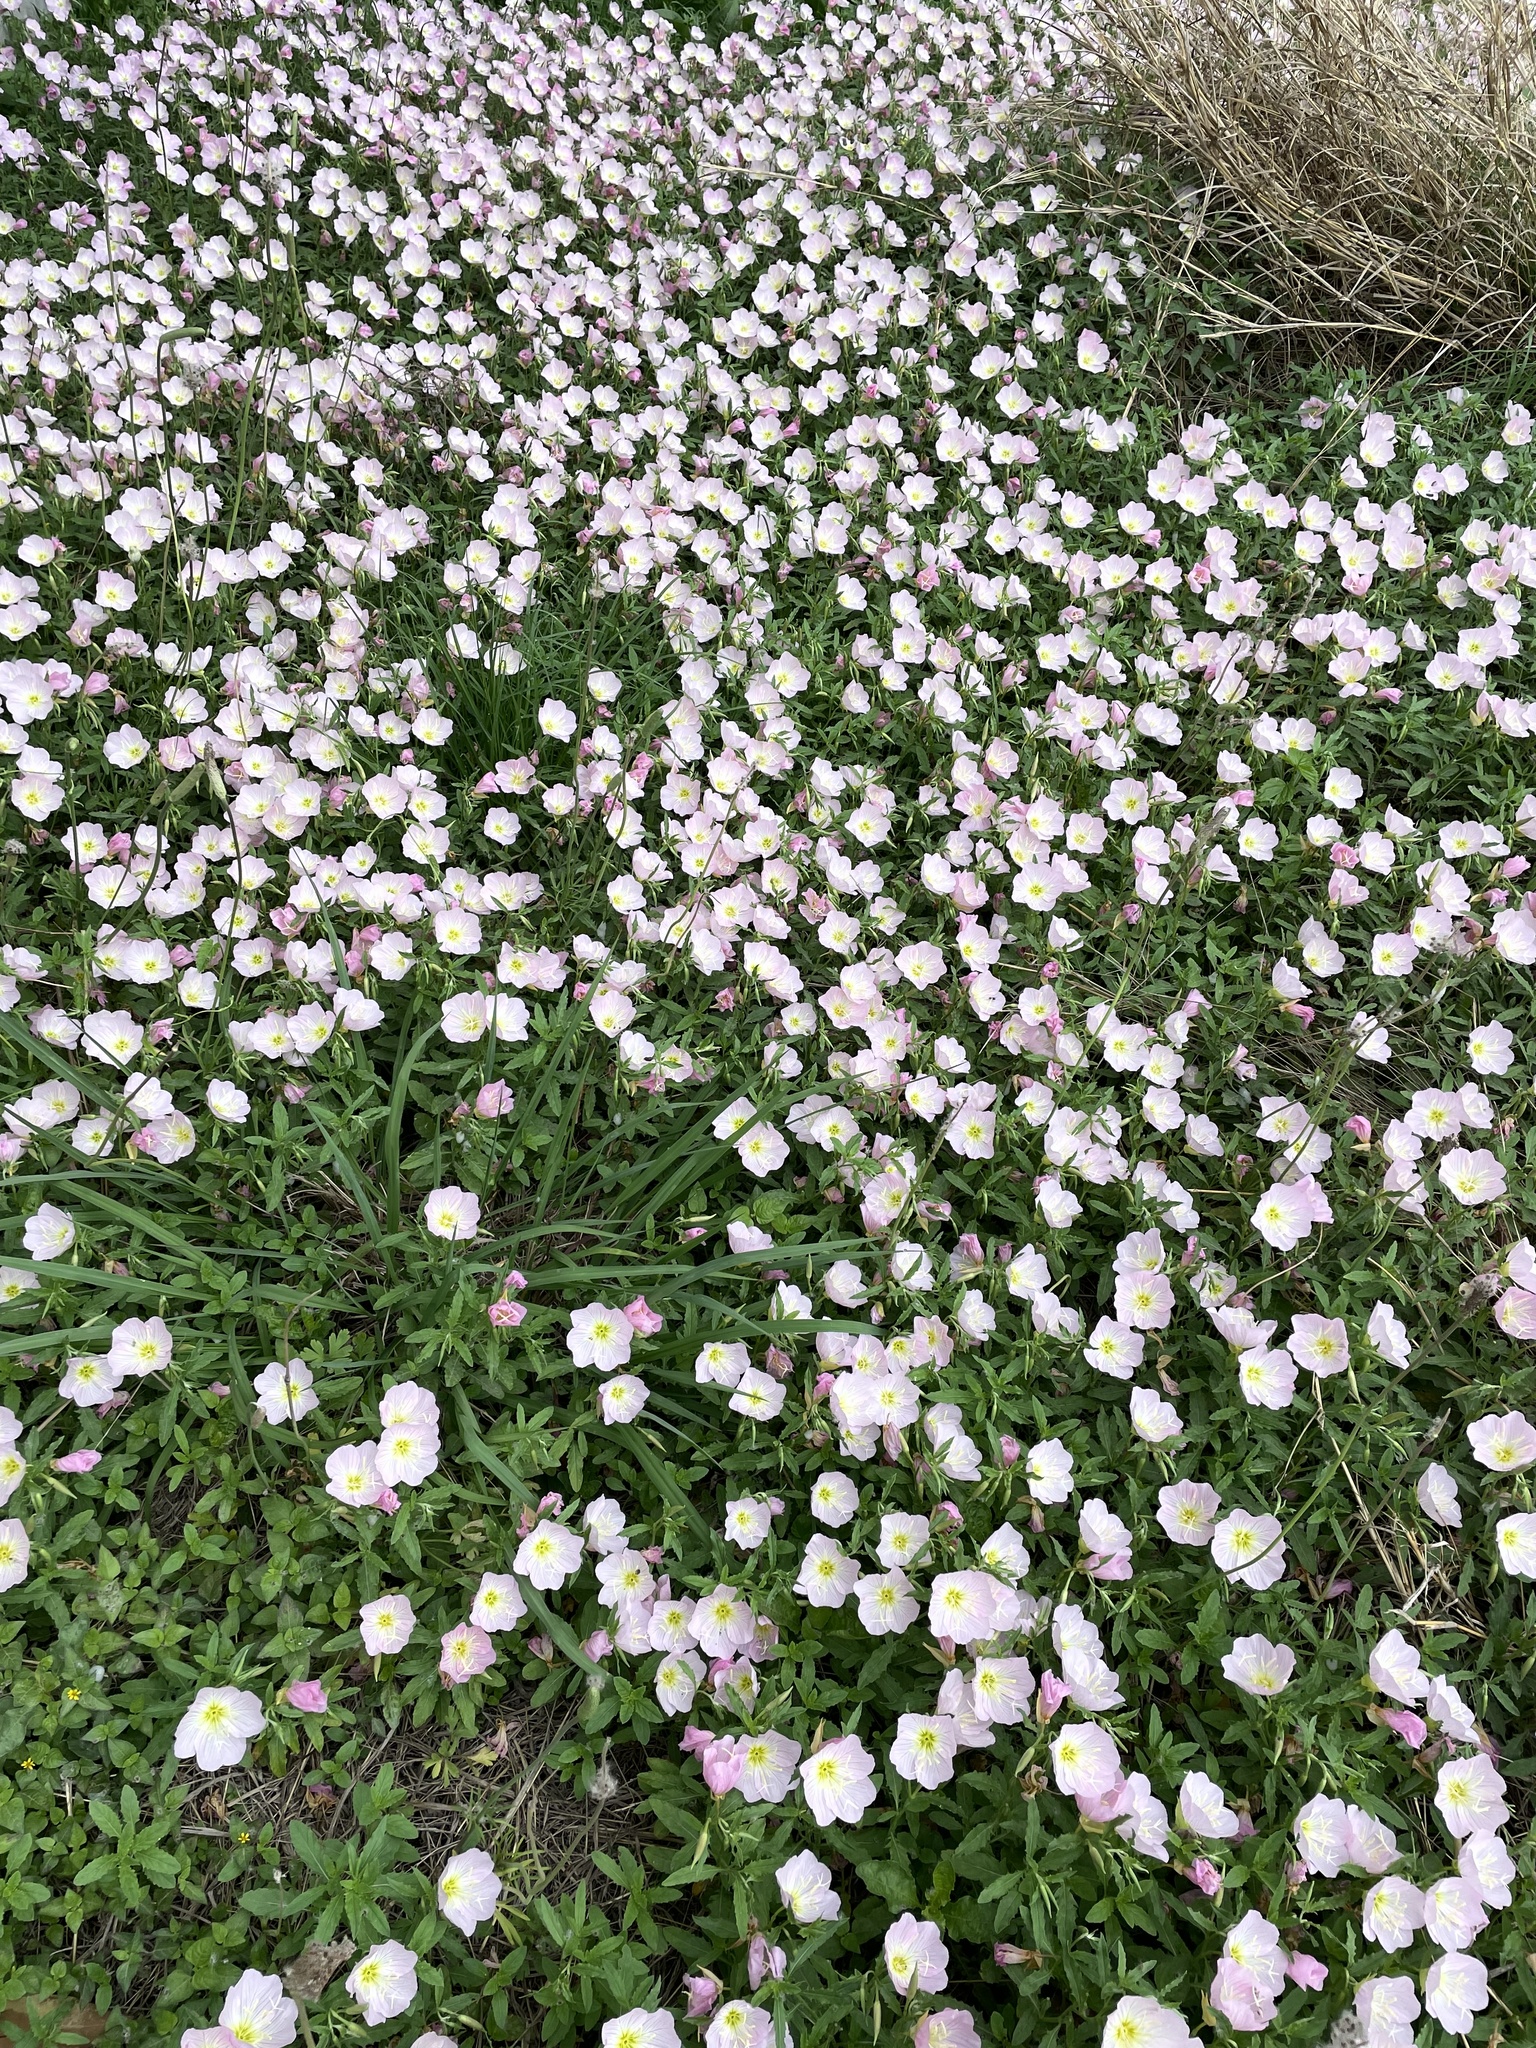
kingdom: Plantae
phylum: Tracheophyta
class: Magnoliopsida
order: Myrtales
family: Onagraceae
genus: Oenothera
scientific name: Oenothera speciosa
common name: White evening-primrose
